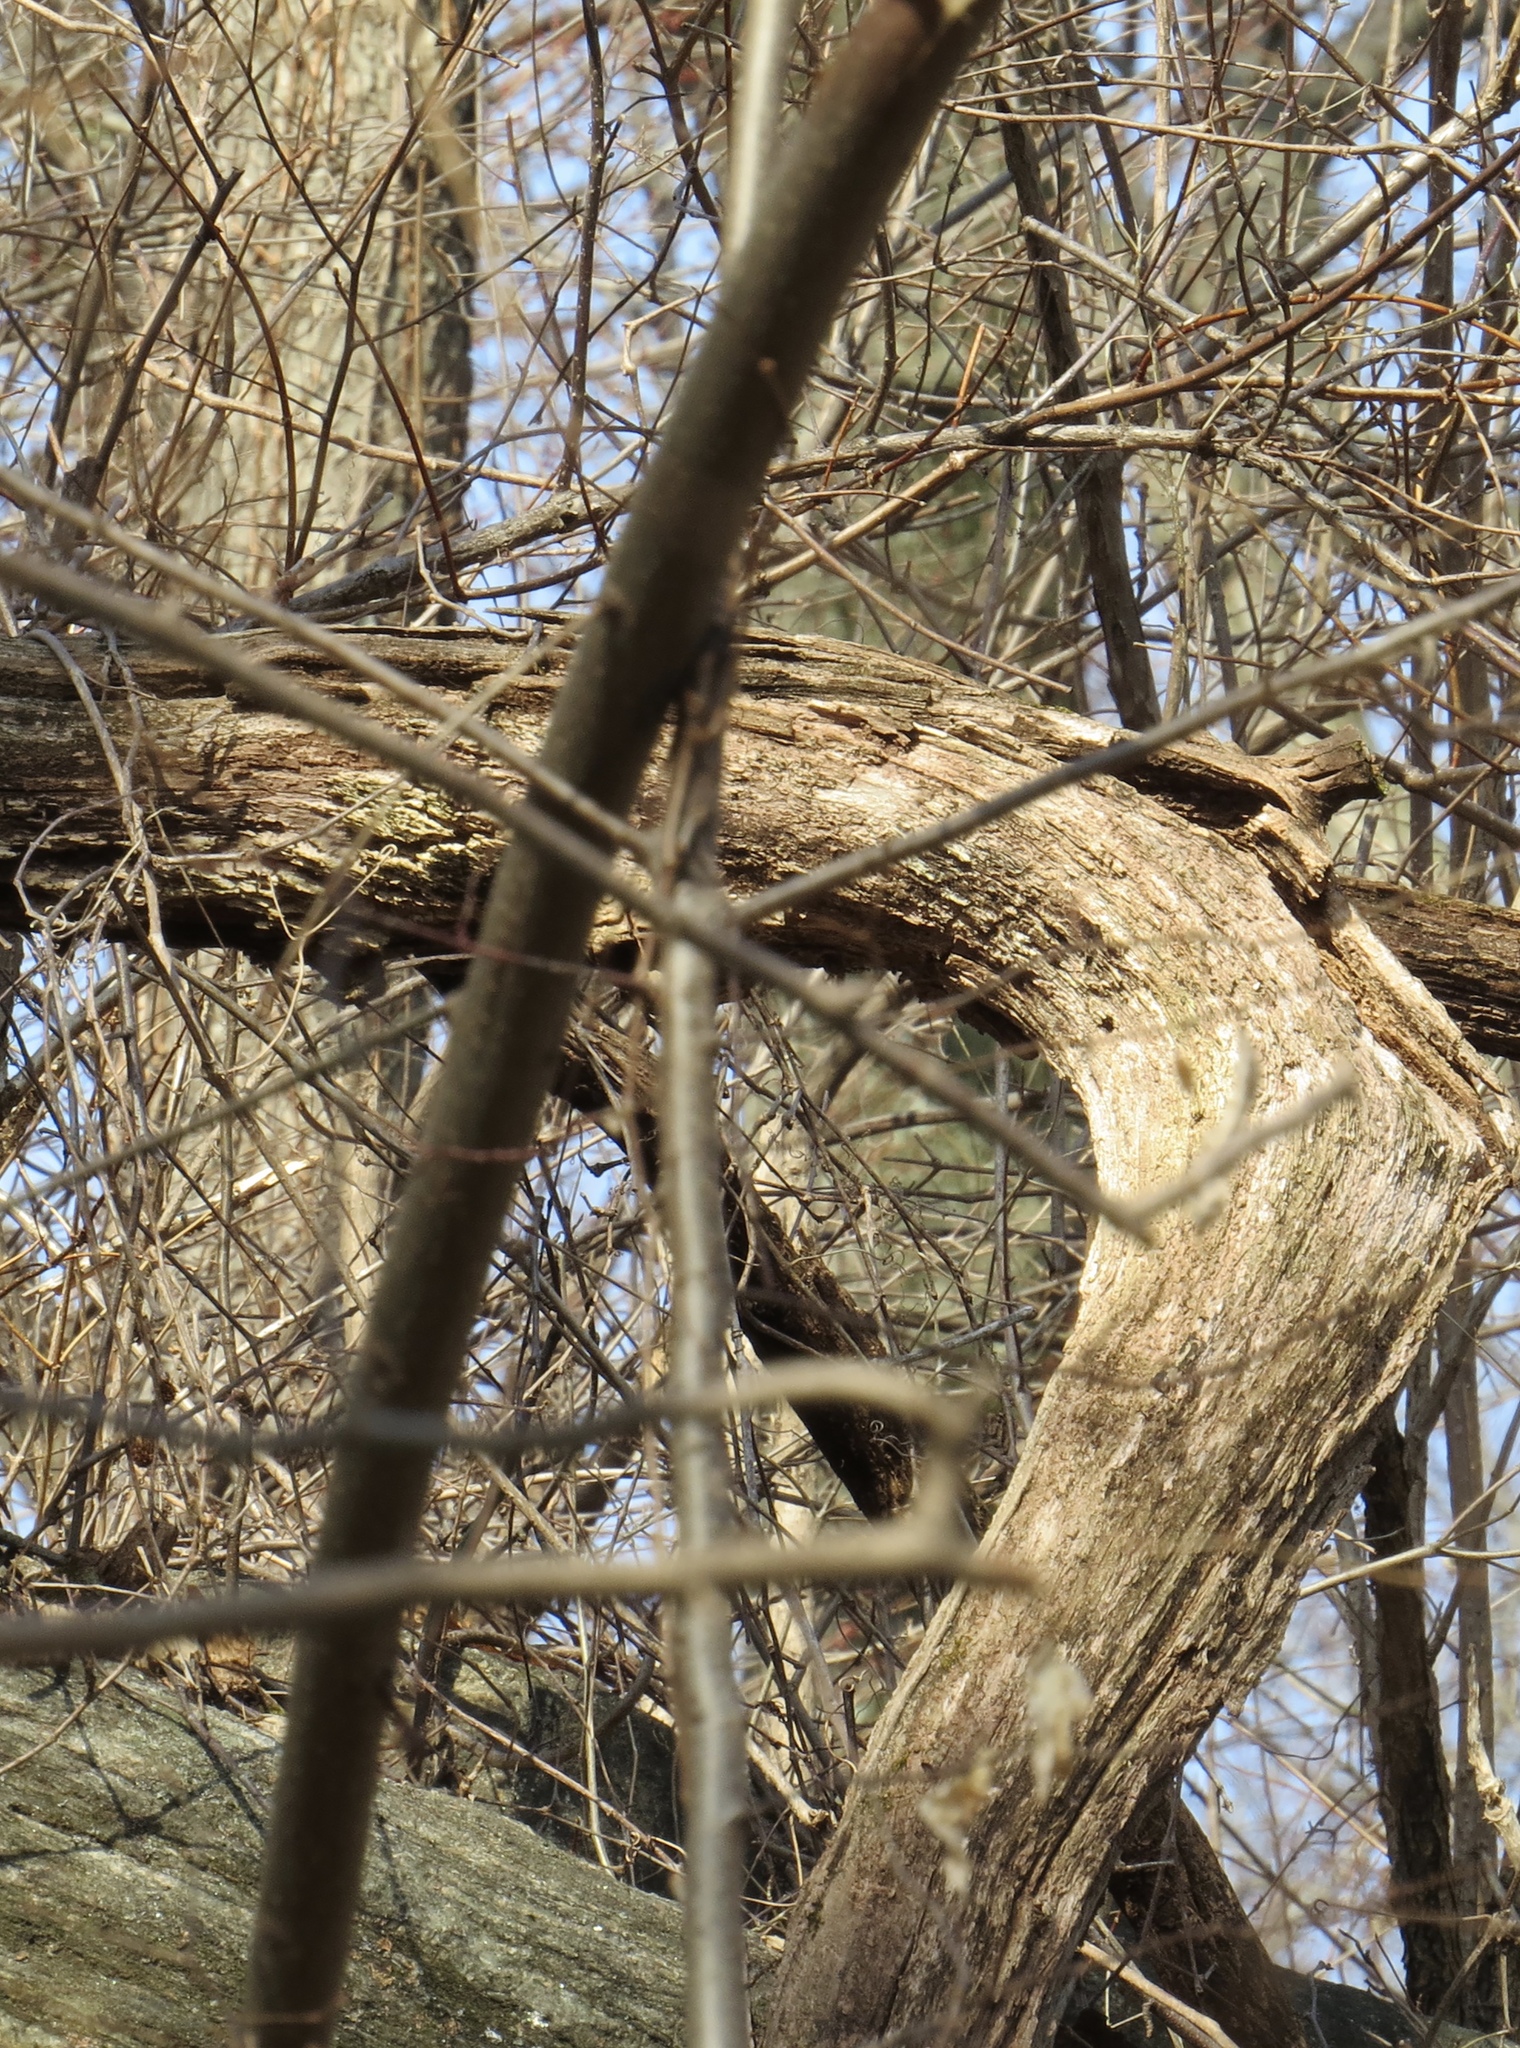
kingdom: Plantae
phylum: Tracheophyta
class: Magnoliopsida
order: Vitales
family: Vitaceae
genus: Vitis
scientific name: Vitis
